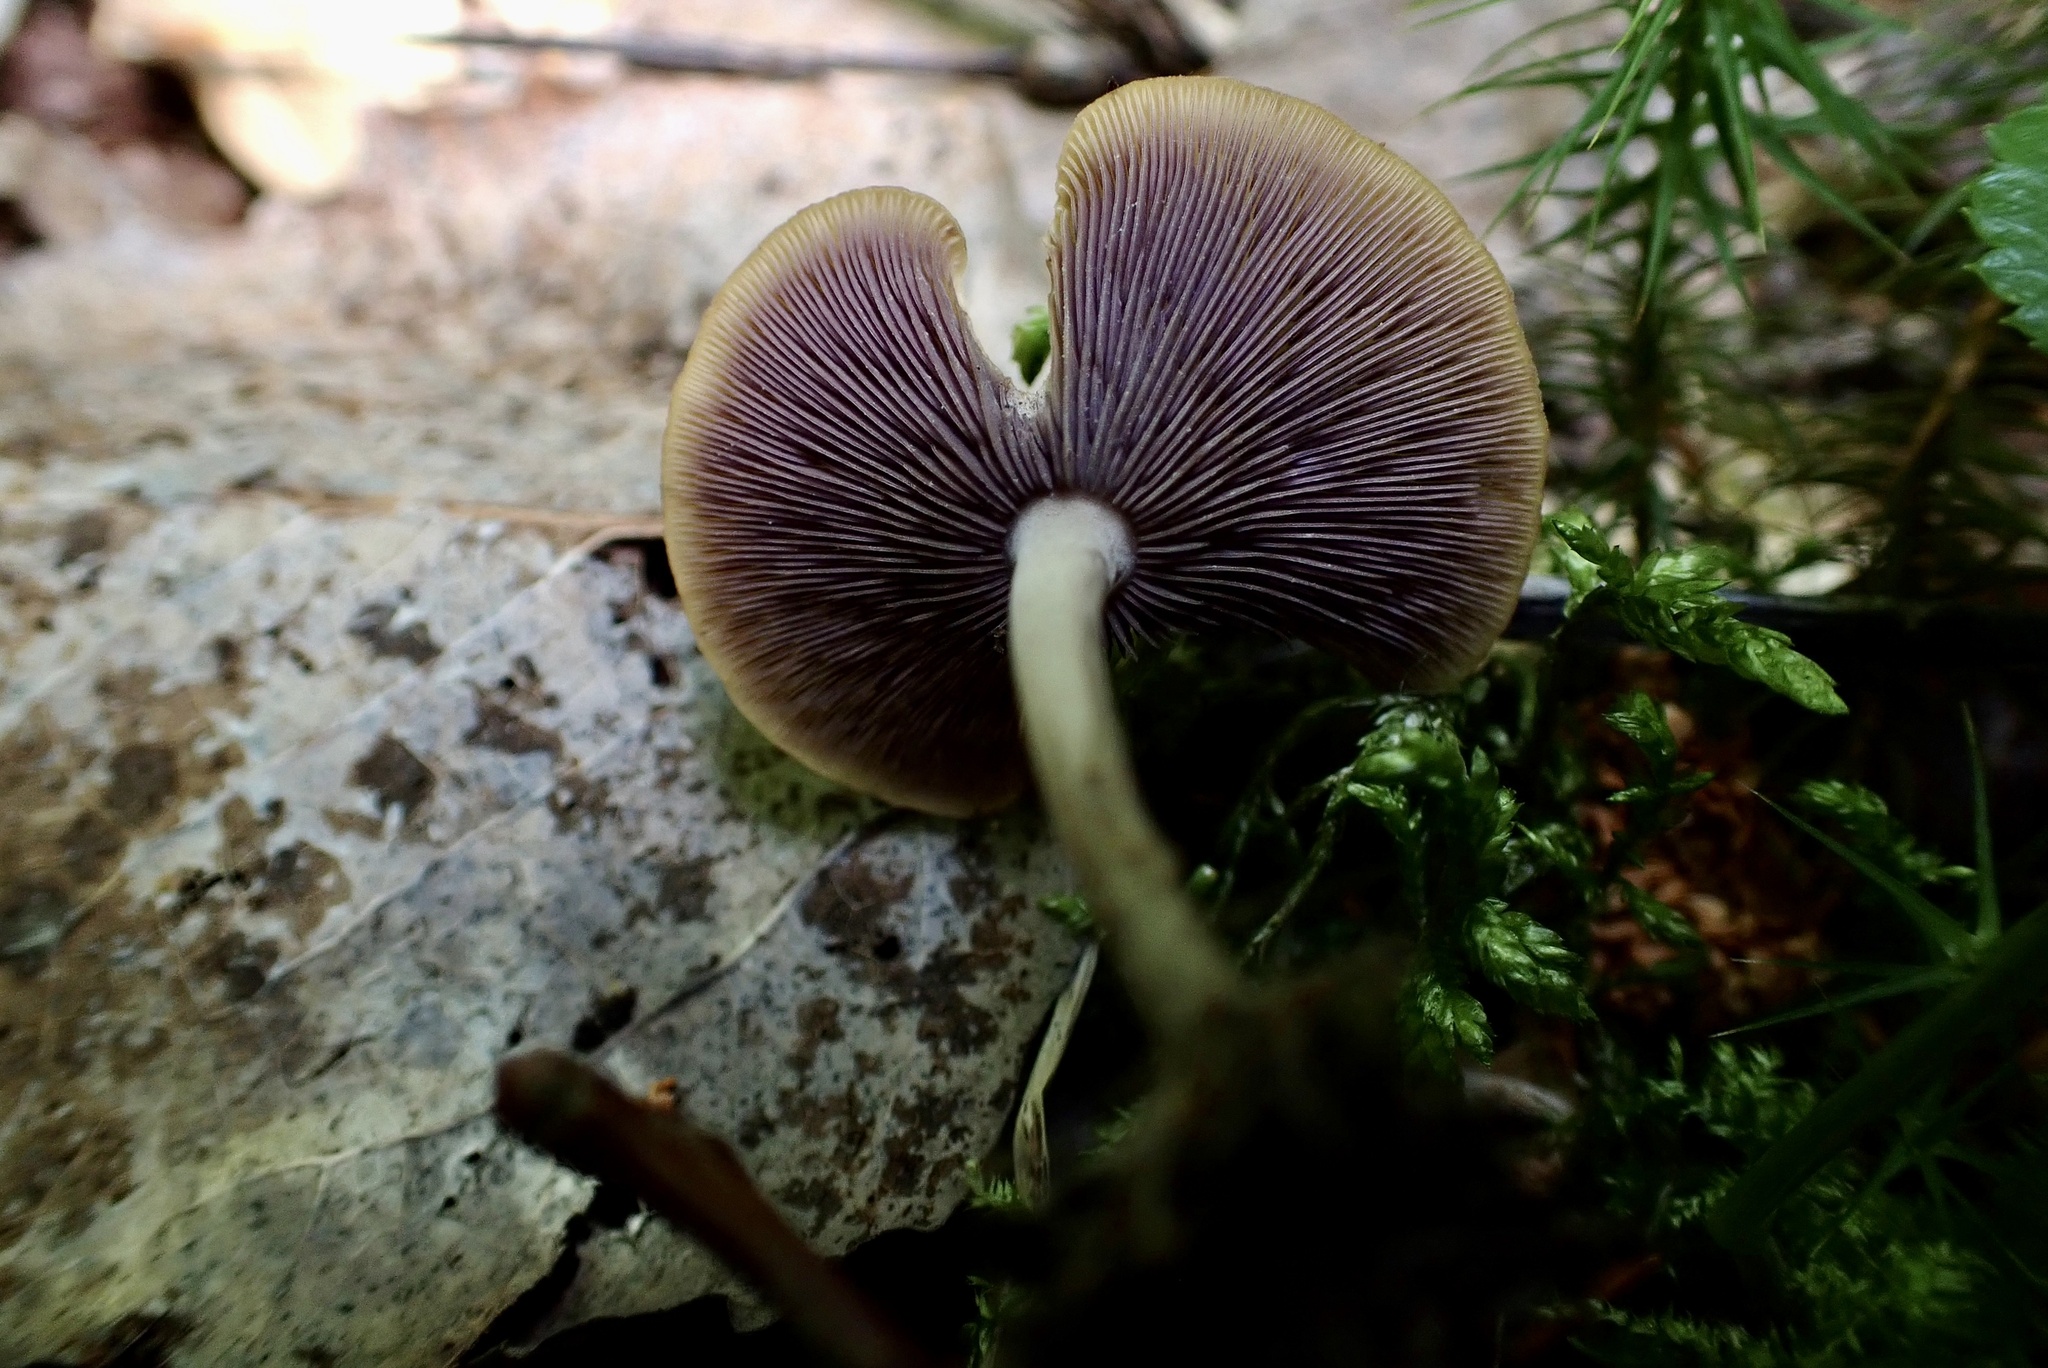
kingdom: Fungi
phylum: Basidiomycota
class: Agaricomycetes
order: Agaricales
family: Marasmiaceae
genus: Baeospora
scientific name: Baeospora myriadophylla
